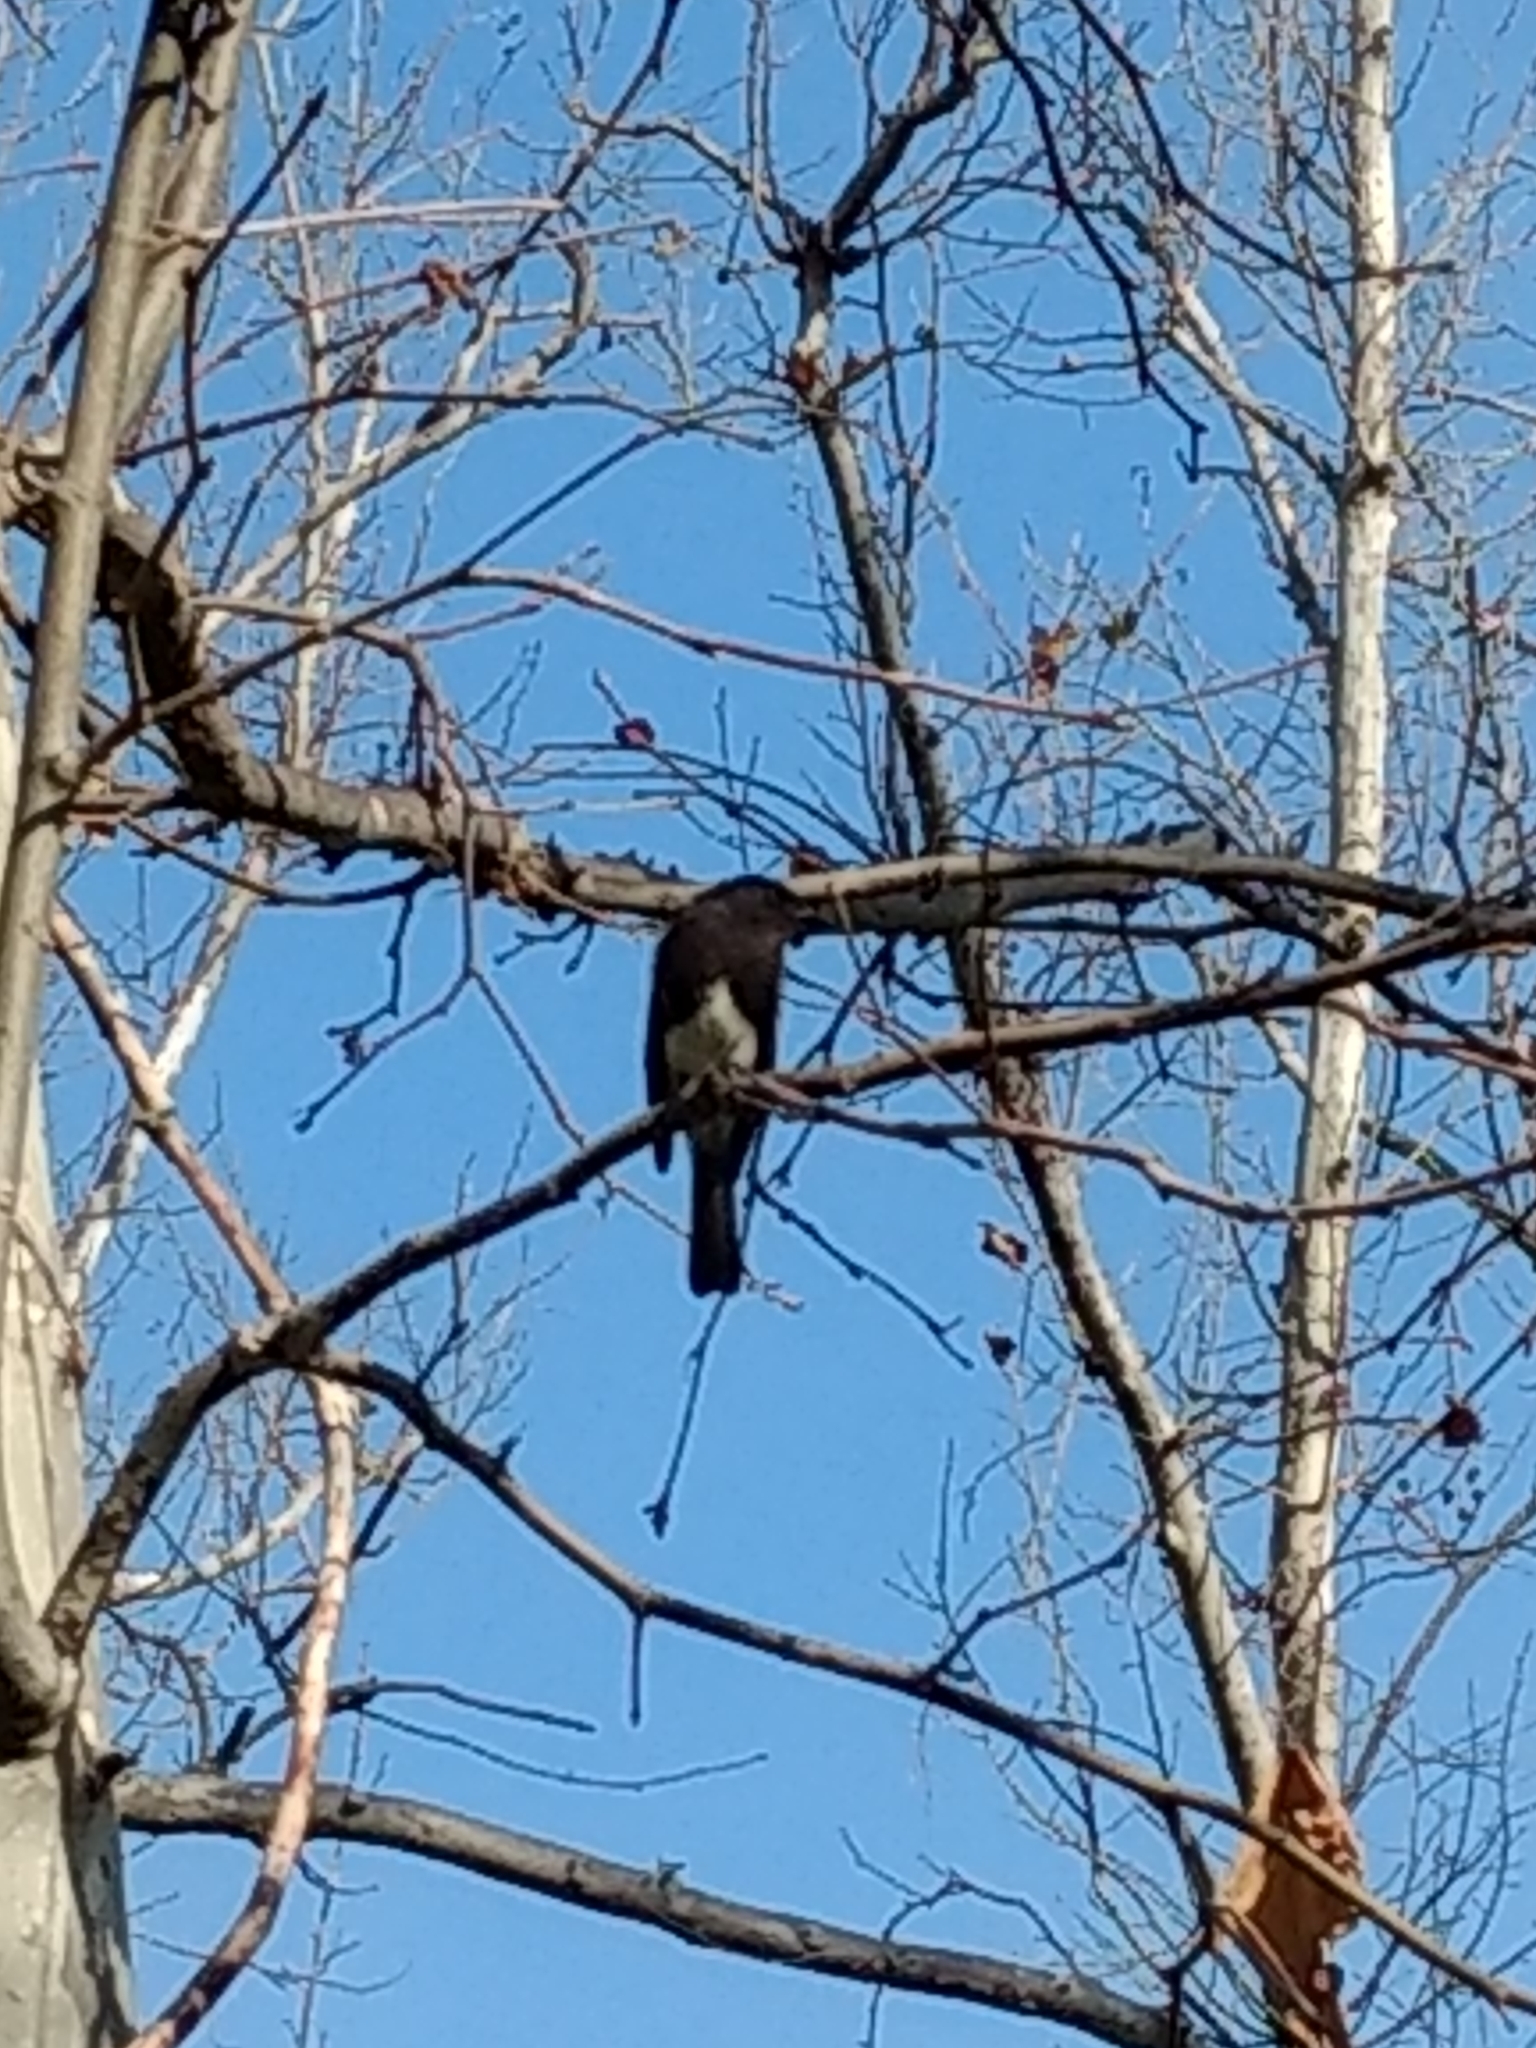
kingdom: Animalia
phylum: Chordata
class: Aves
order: Passeriformes
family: Tyrannidae
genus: Sayornis
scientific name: Sayornis nigricans
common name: Black phoebe
